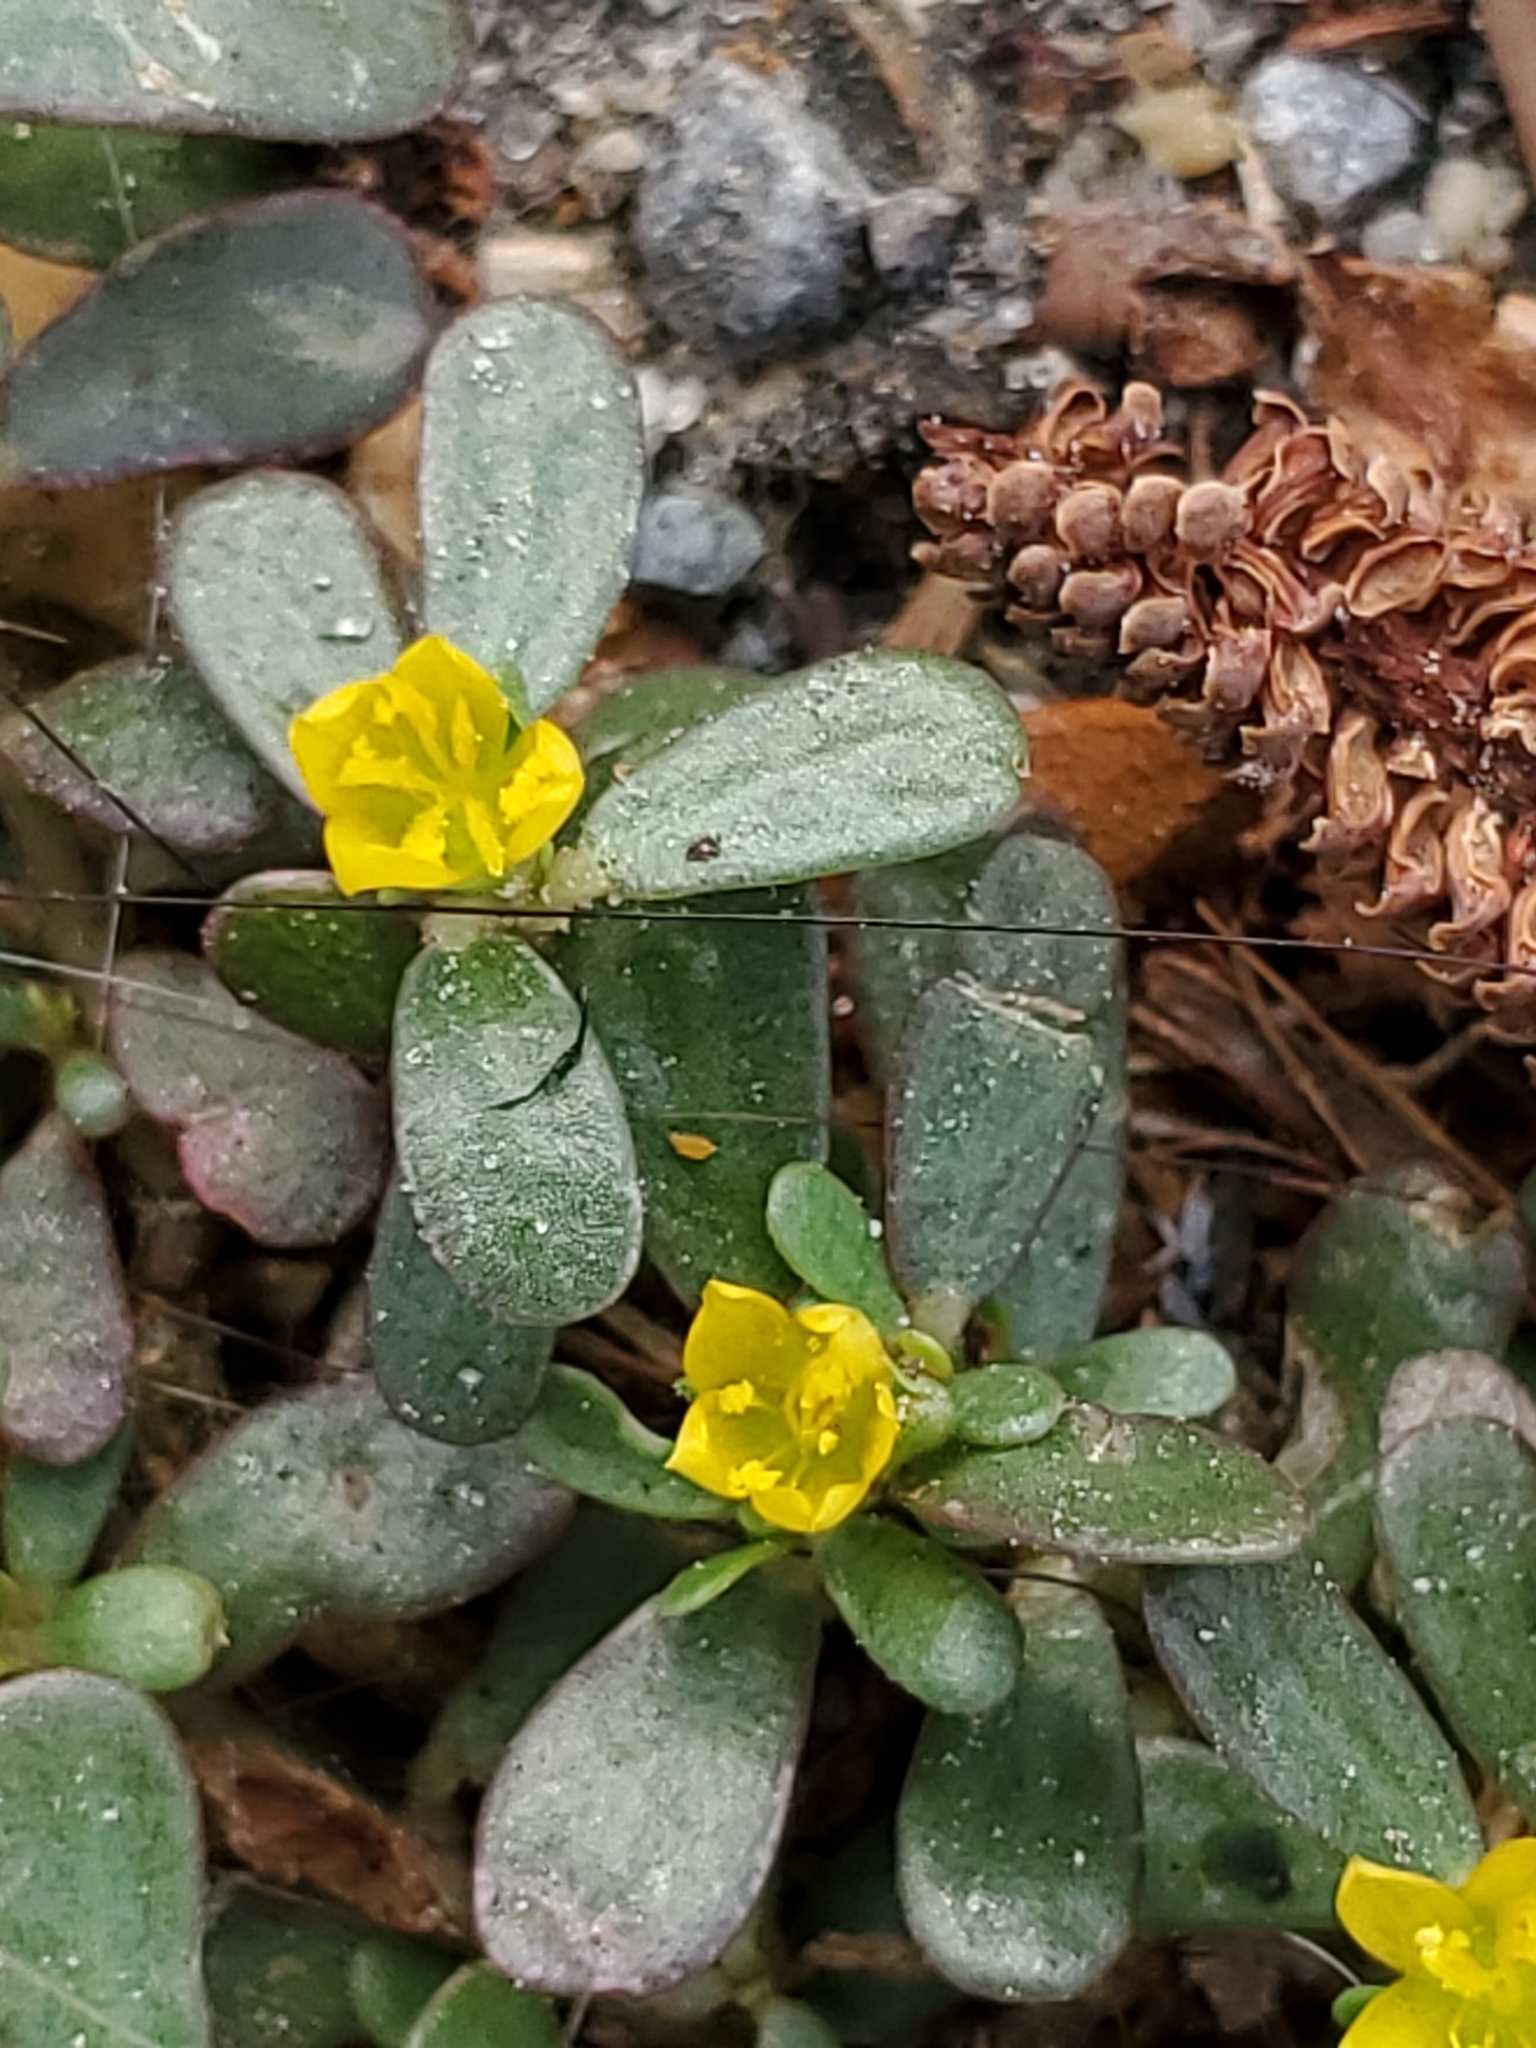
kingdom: Plantae
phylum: Tracheophyta
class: Magnoliopsida
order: Caryophyllales
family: Portulacaceae
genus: Portulaca
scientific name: Portulaca oleracea
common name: Common purslane
